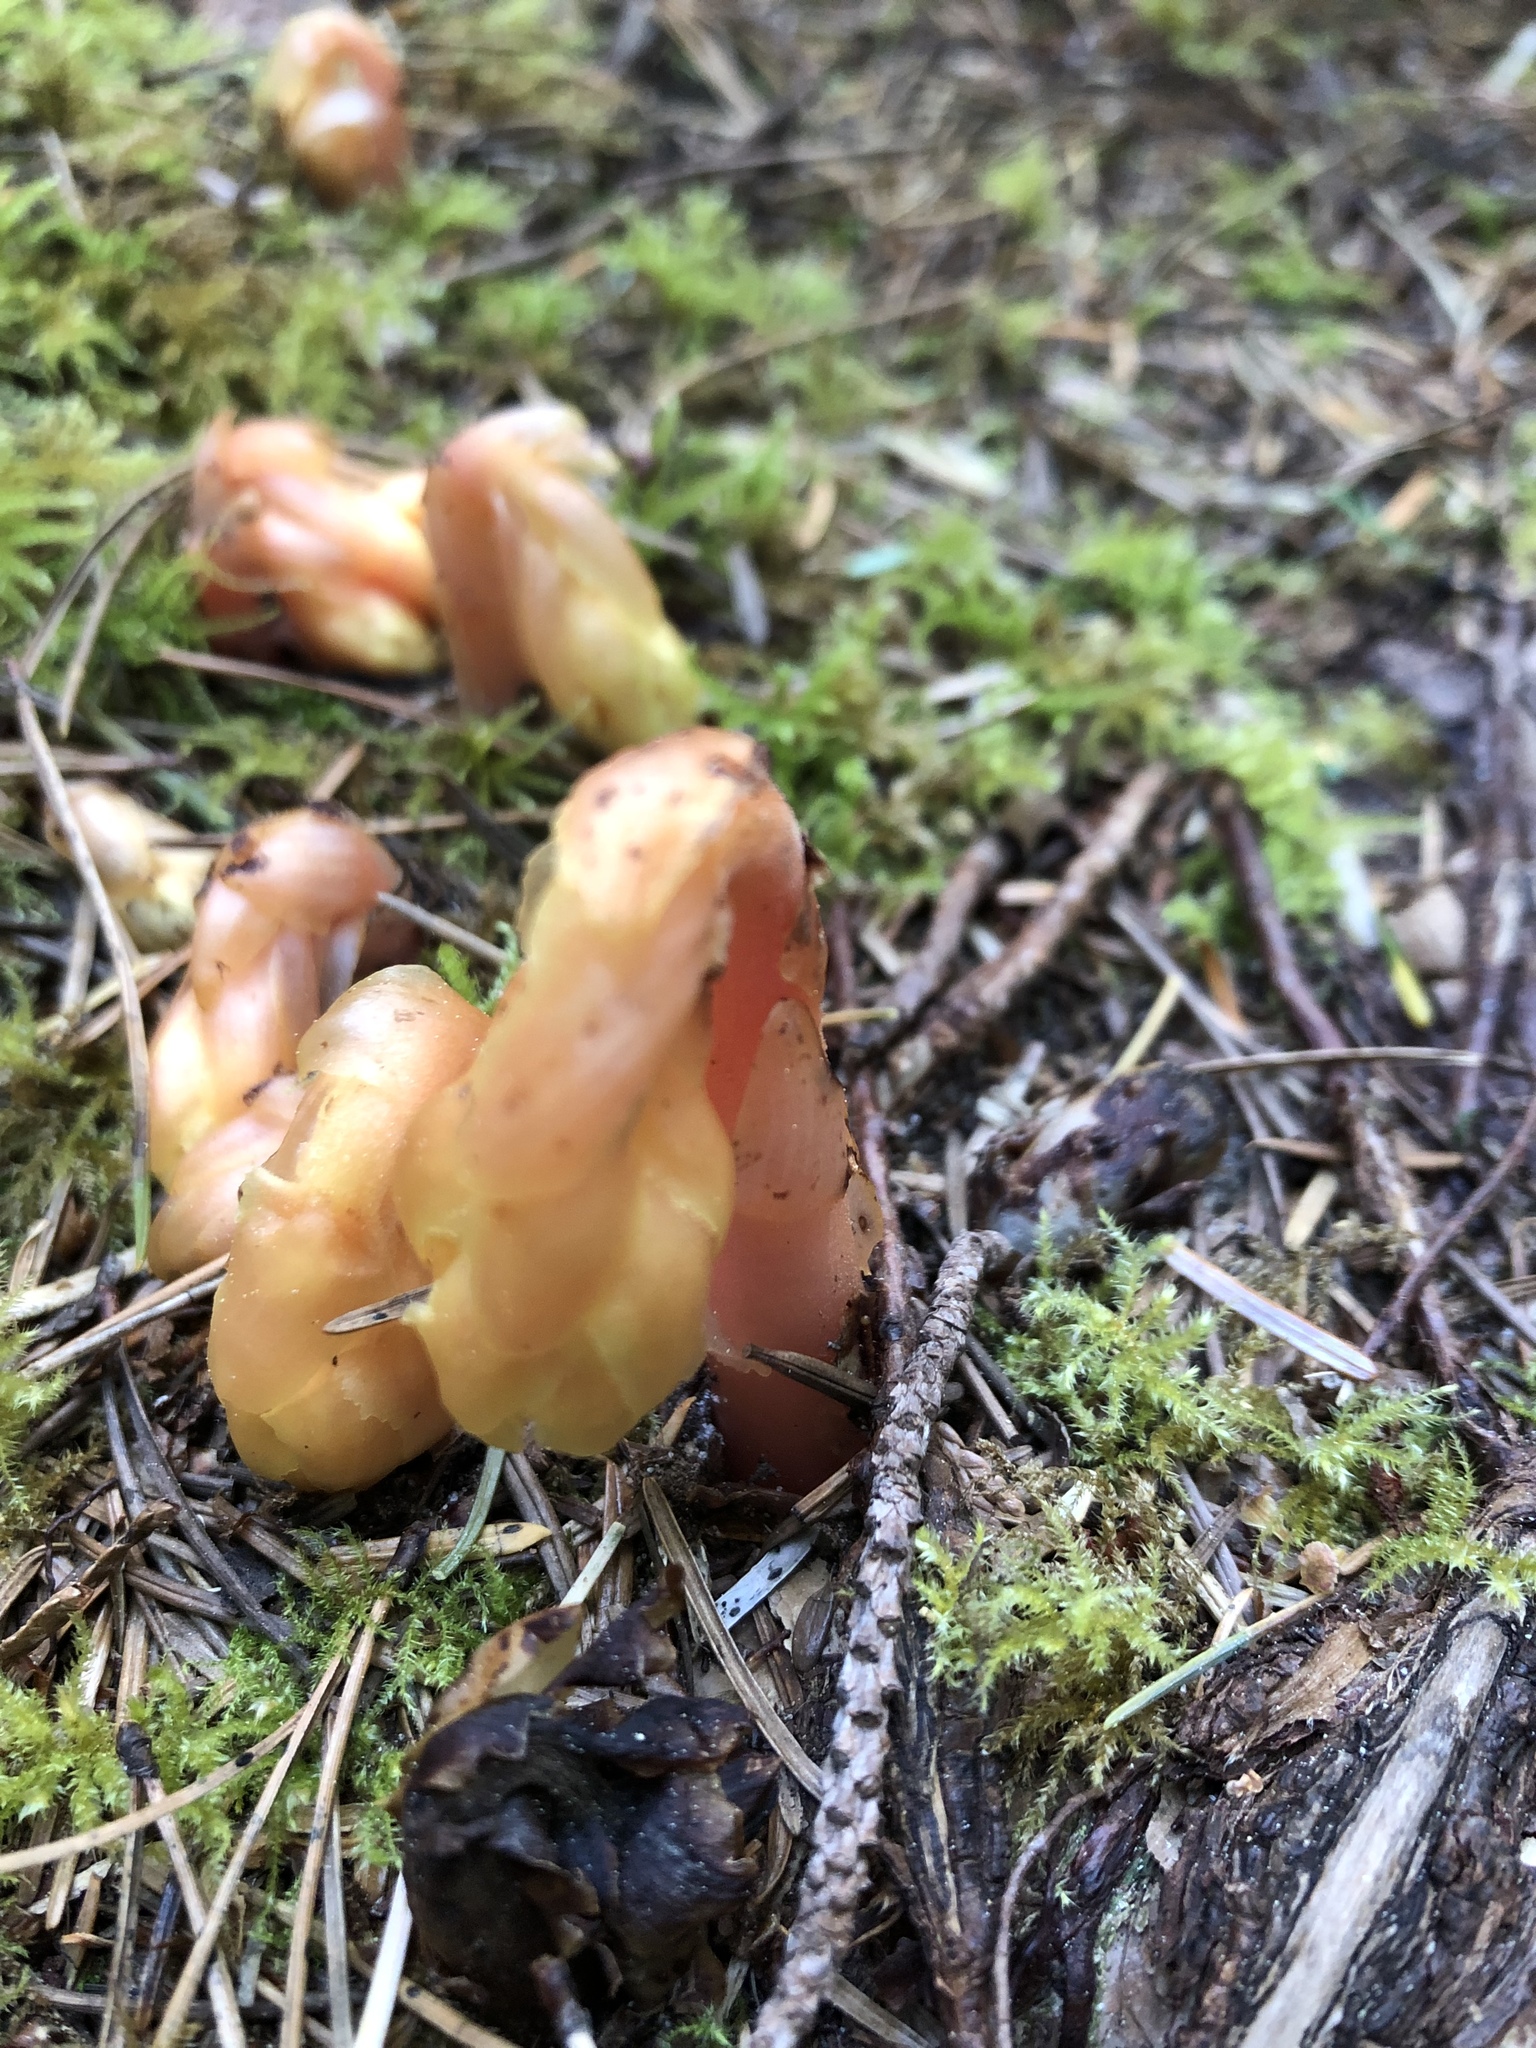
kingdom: Plantae
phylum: Tracheophyta
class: Magnoliopsida
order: Ericales
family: Ericaceae
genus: Hypopitys
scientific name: Hypopitys monotropa
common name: Yellow bird's-nest
